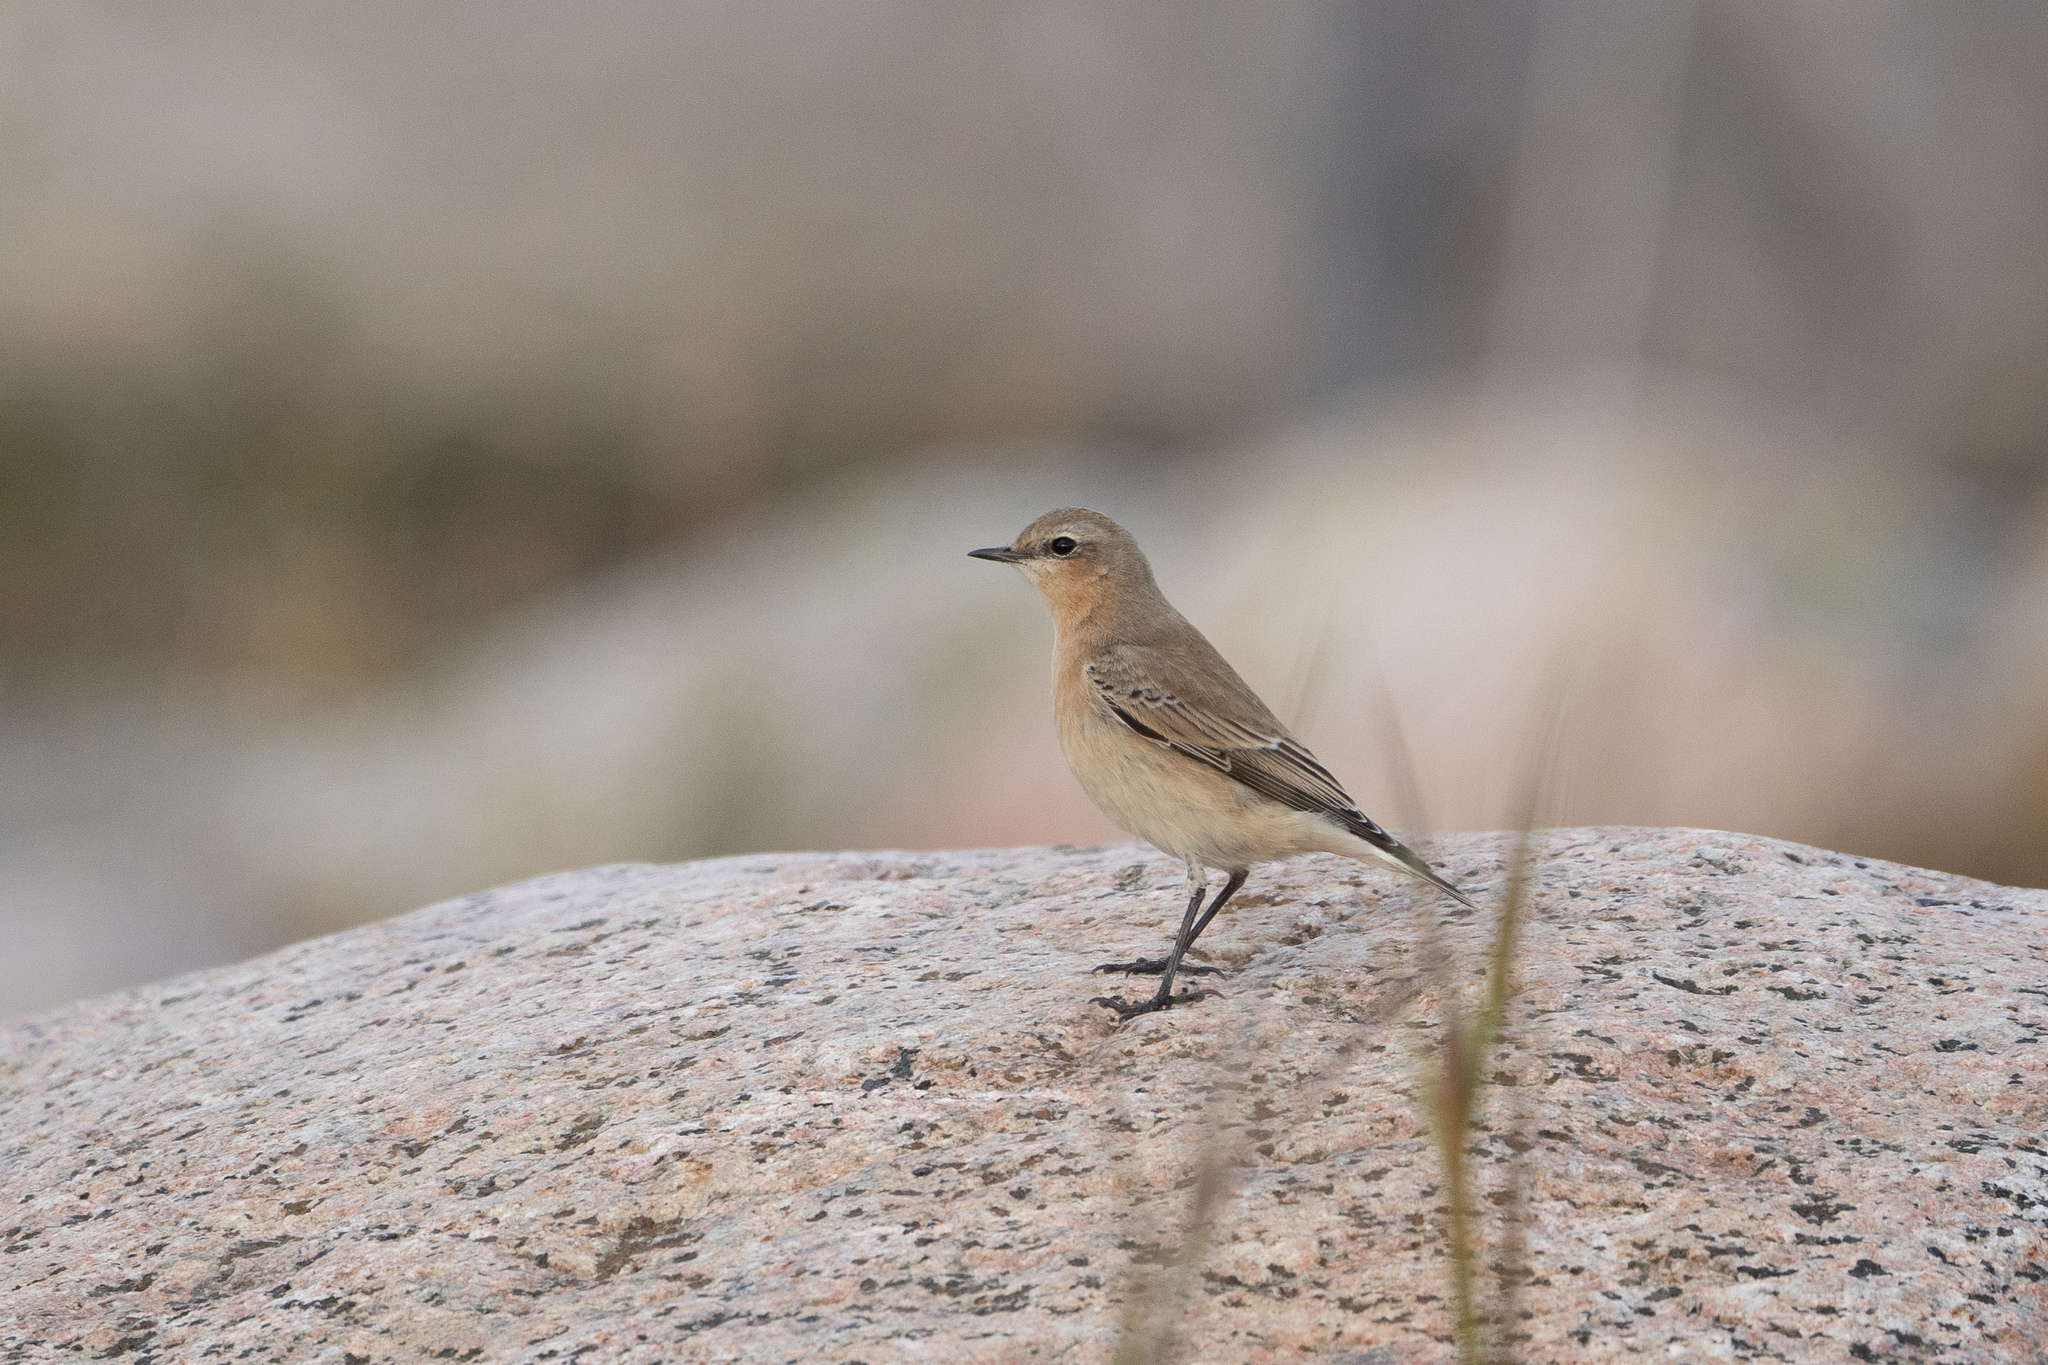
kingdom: Animalia
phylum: Chordata
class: Aves
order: Passeriformes
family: Muscicapidae
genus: Oenanthe
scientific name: Oenanthe oenanthe
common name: Northern wheatear
